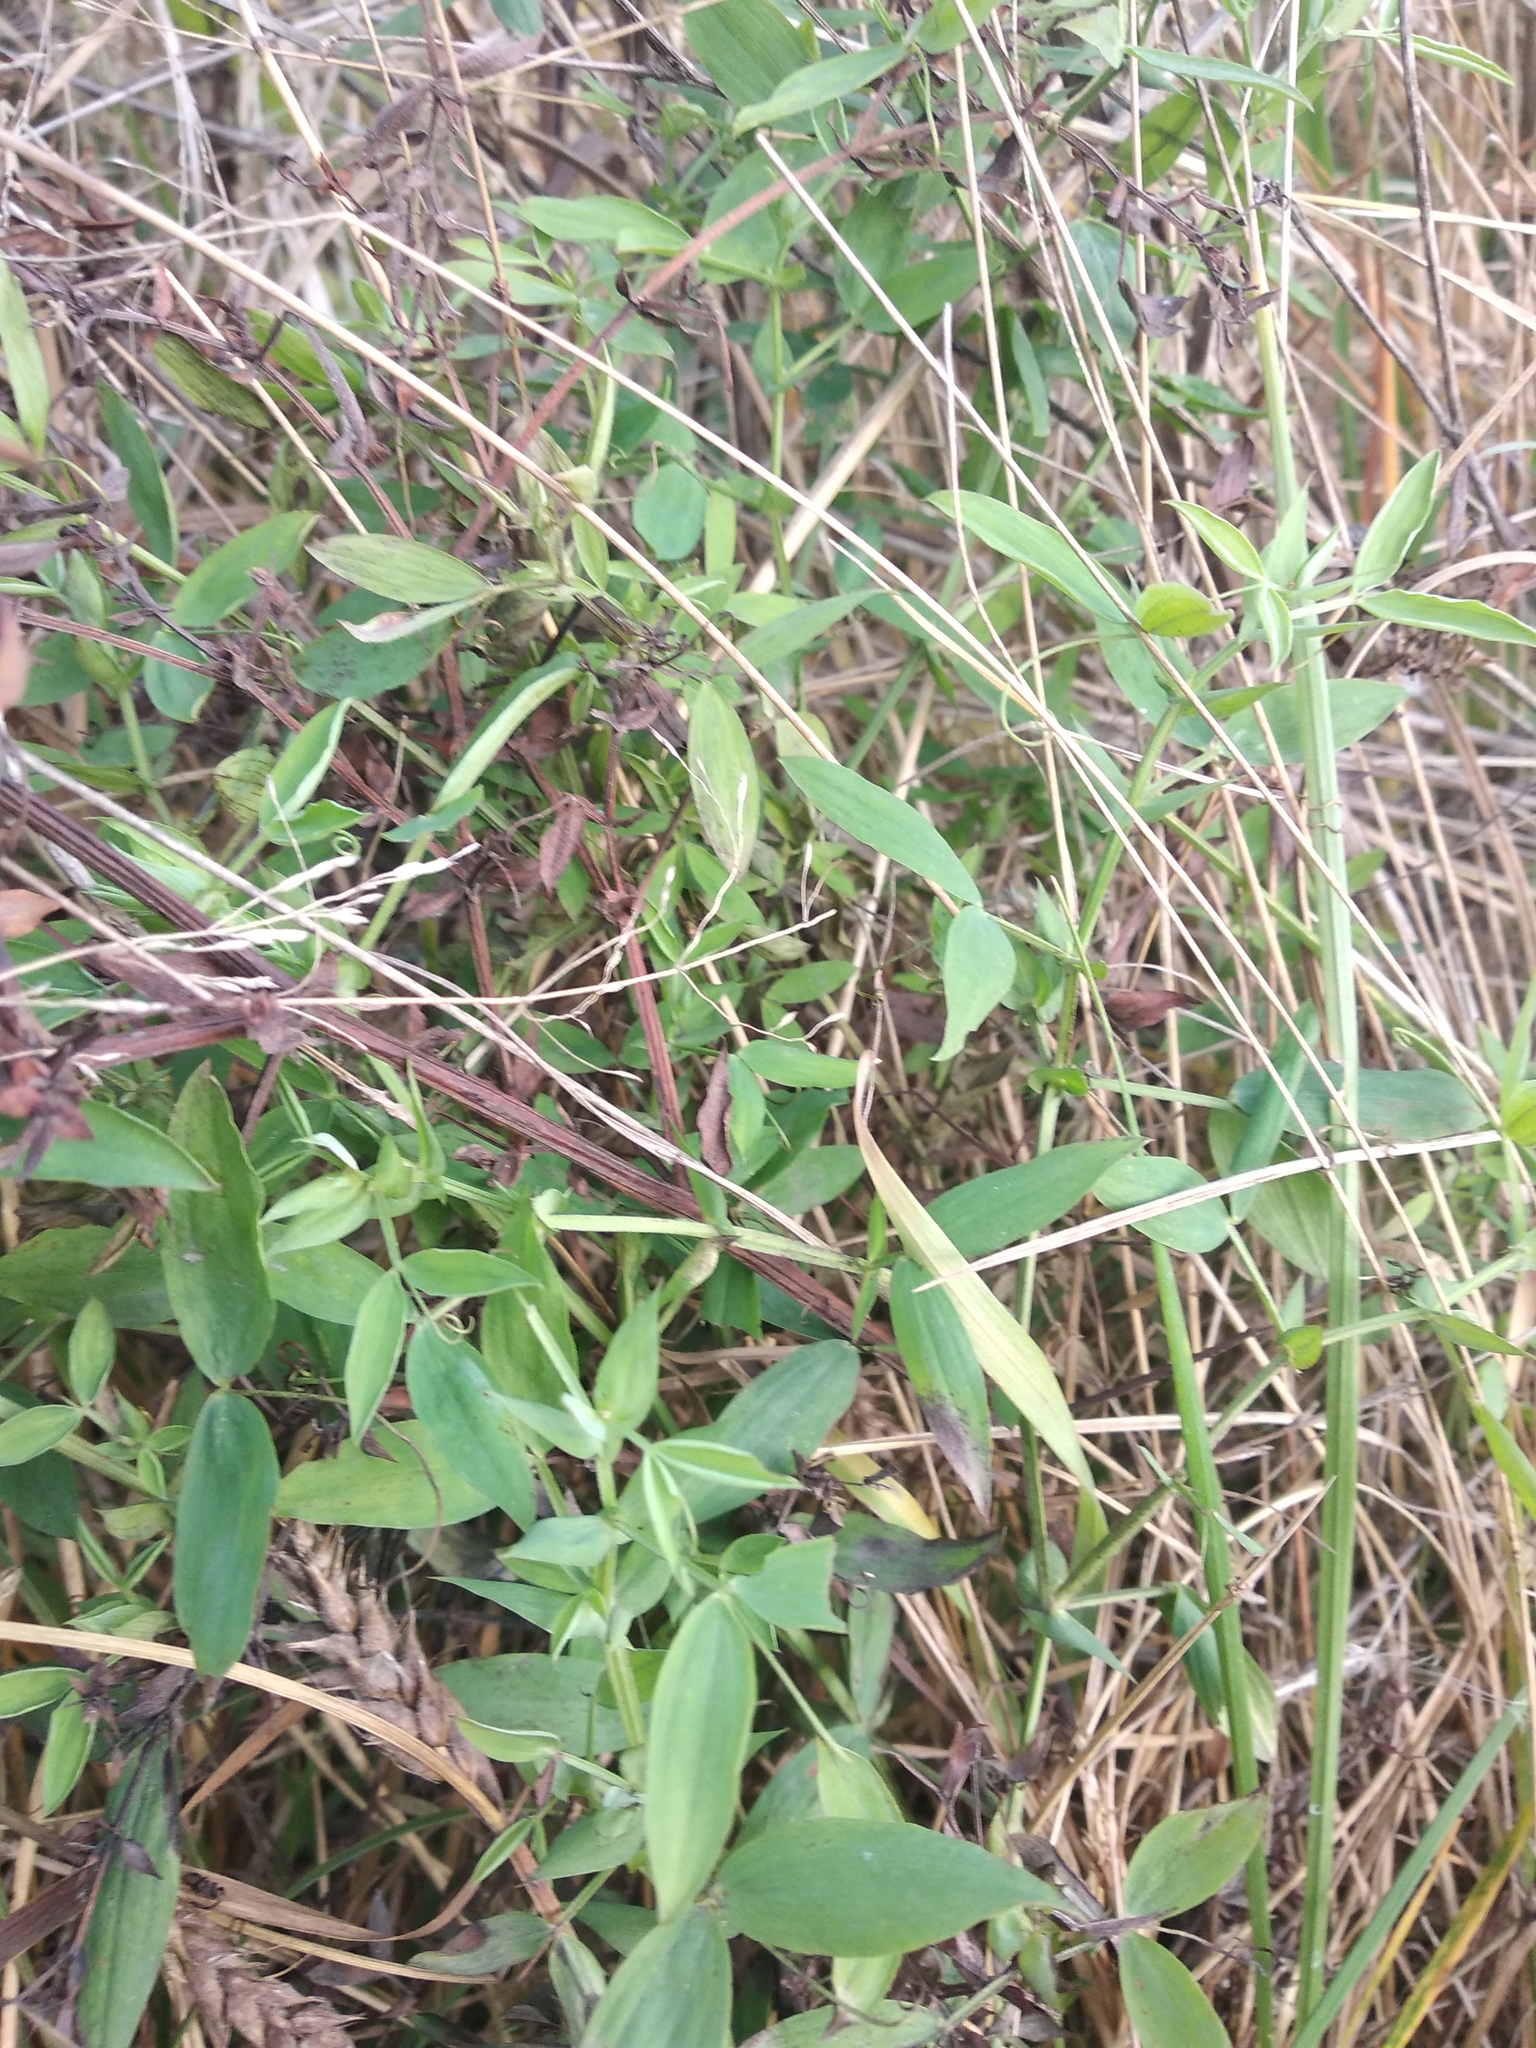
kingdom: Plantae
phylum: Tracheophyta
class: Magnoliopsida
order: Fabales
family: Fabaceae
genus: Lathyrus
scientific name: Lathyrus pratensis
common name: Meadow vetchling
